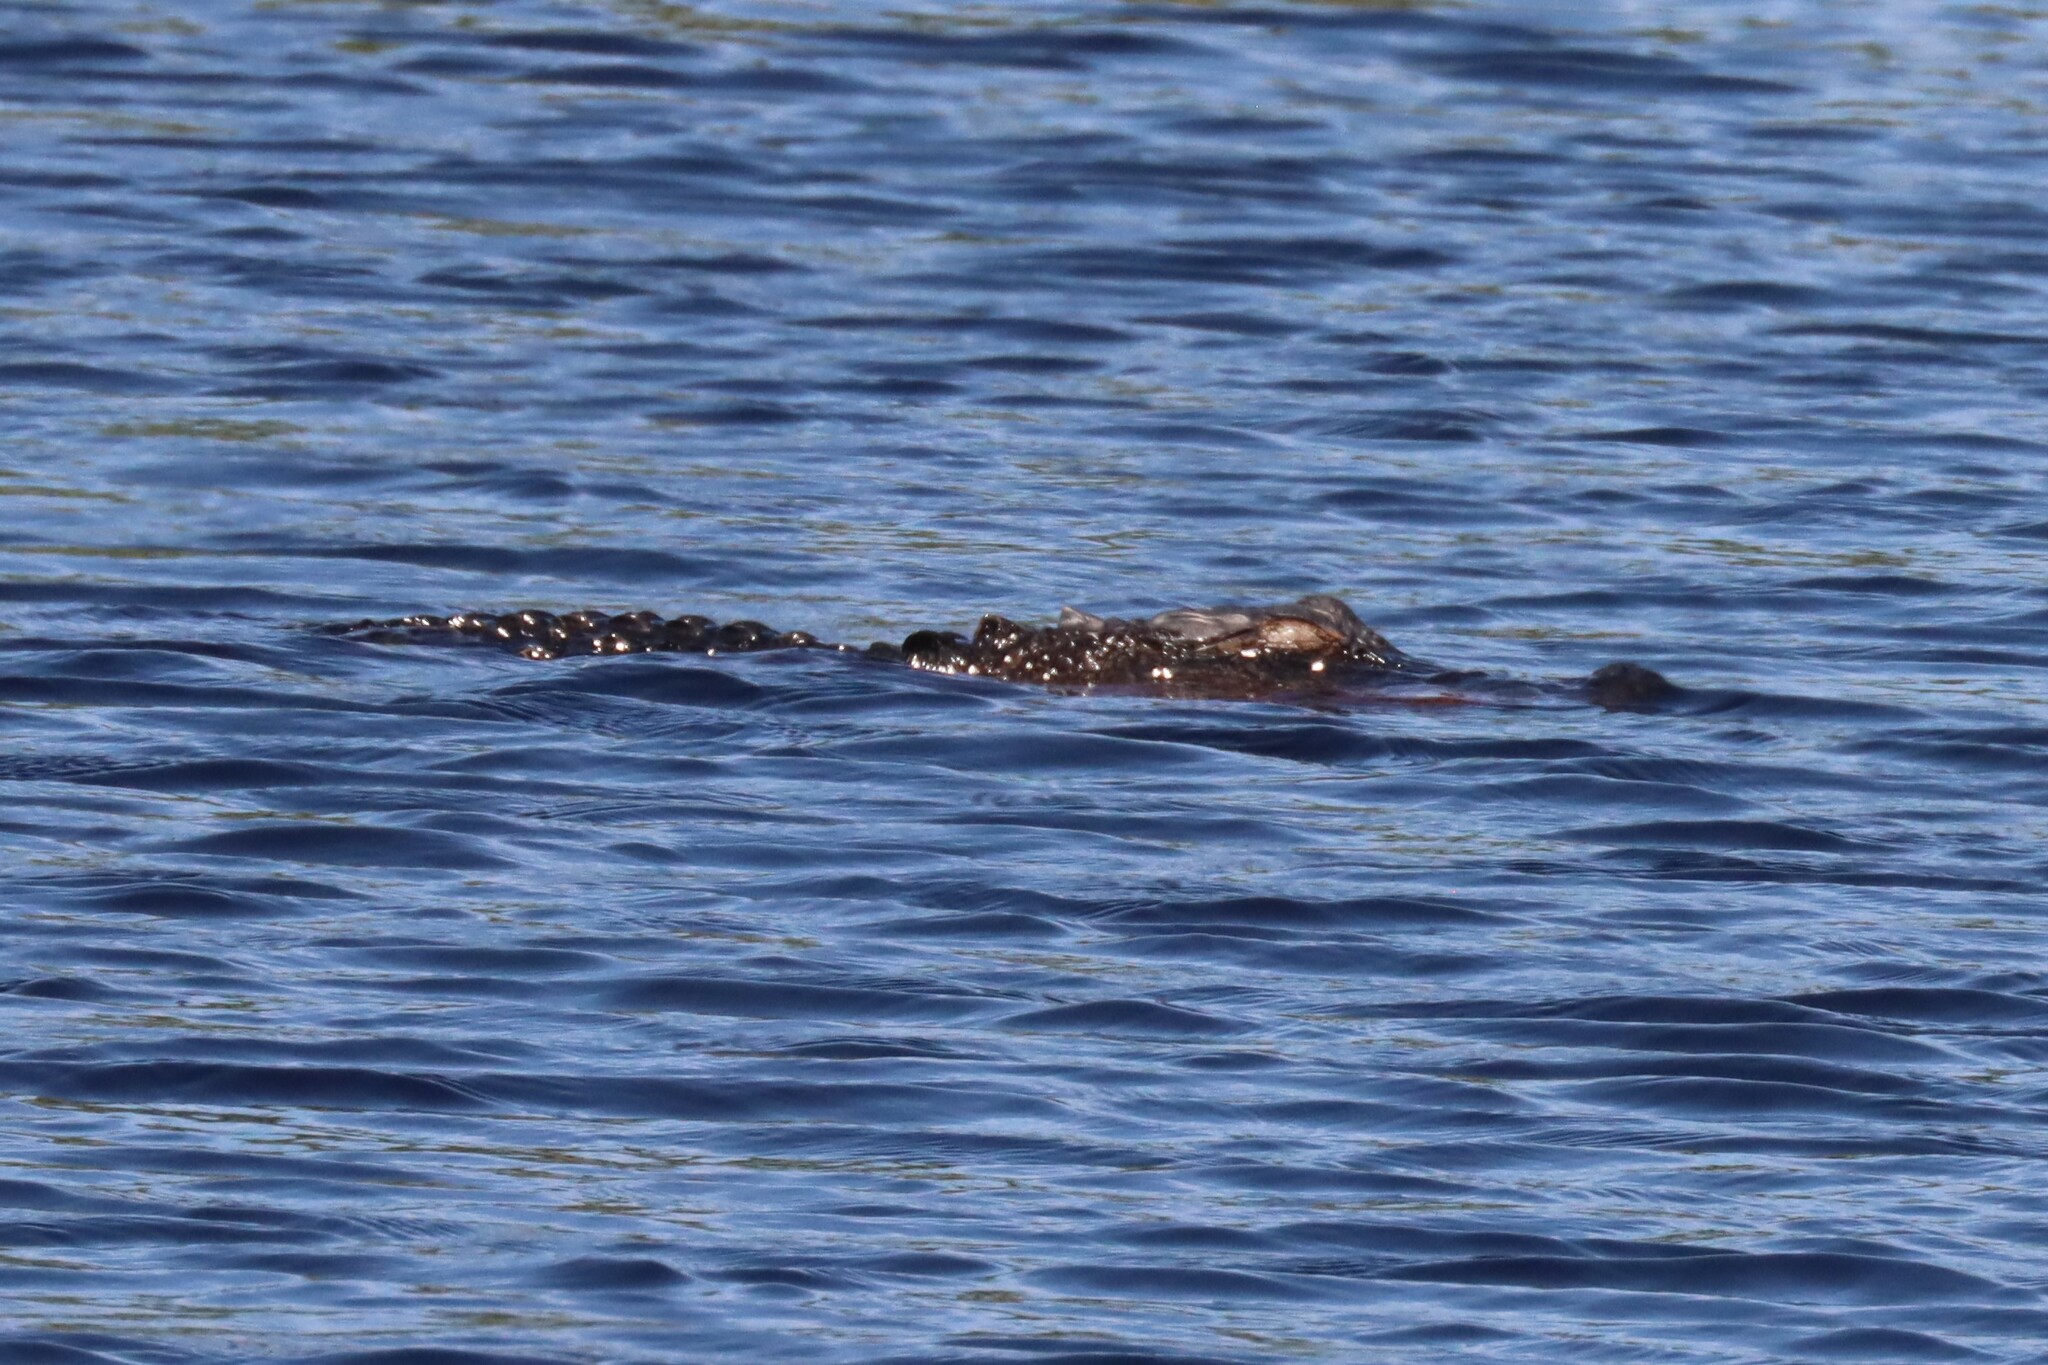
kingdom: Animalia
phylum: Chordata
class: Crocodylia
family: Alligatoridae
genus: Alligator
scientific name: Alligator mississippiensis
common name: American alligator
